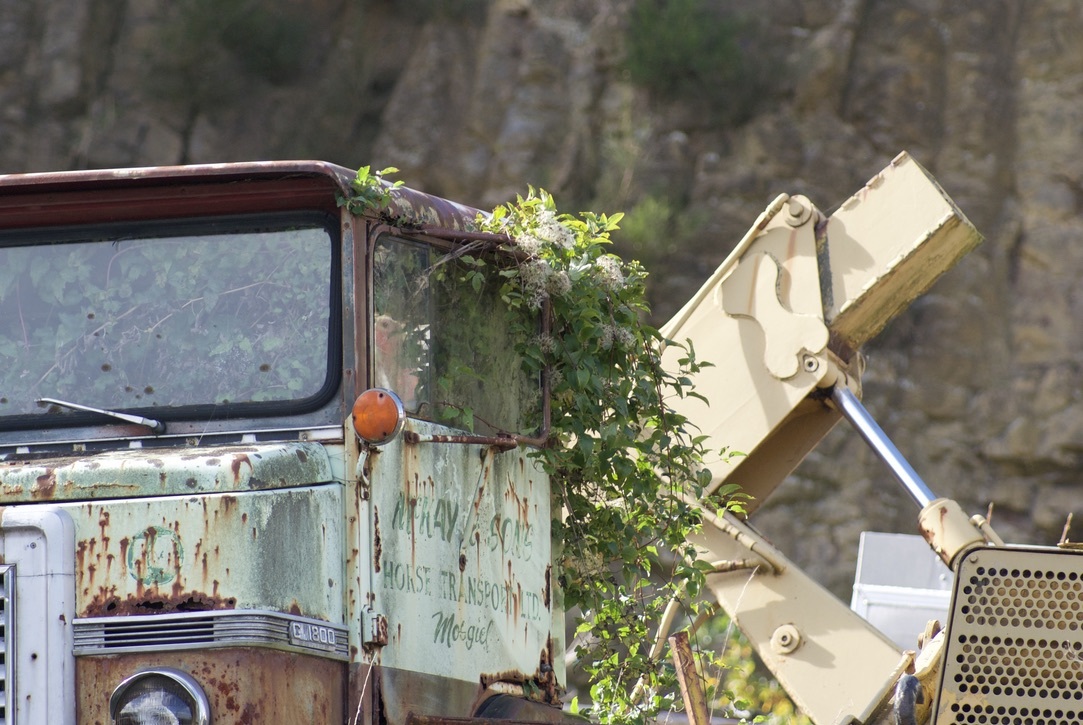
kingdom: Plantae
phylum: Tracheophyta
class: Magnoliopsida
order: Ranunculales
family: Ranunculaceae
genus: Clematis
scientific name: Clematis vitalba
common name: Evergreen clematis
